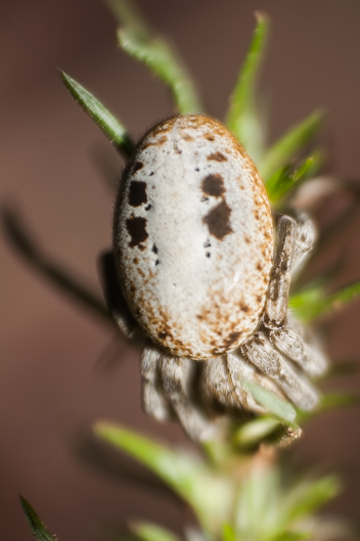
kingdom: Animalia
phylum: Arthropoda
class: Arachnida
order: Araneae
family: Eresidae
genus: Stegodyphus
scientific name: Stegodyphus lineatus
